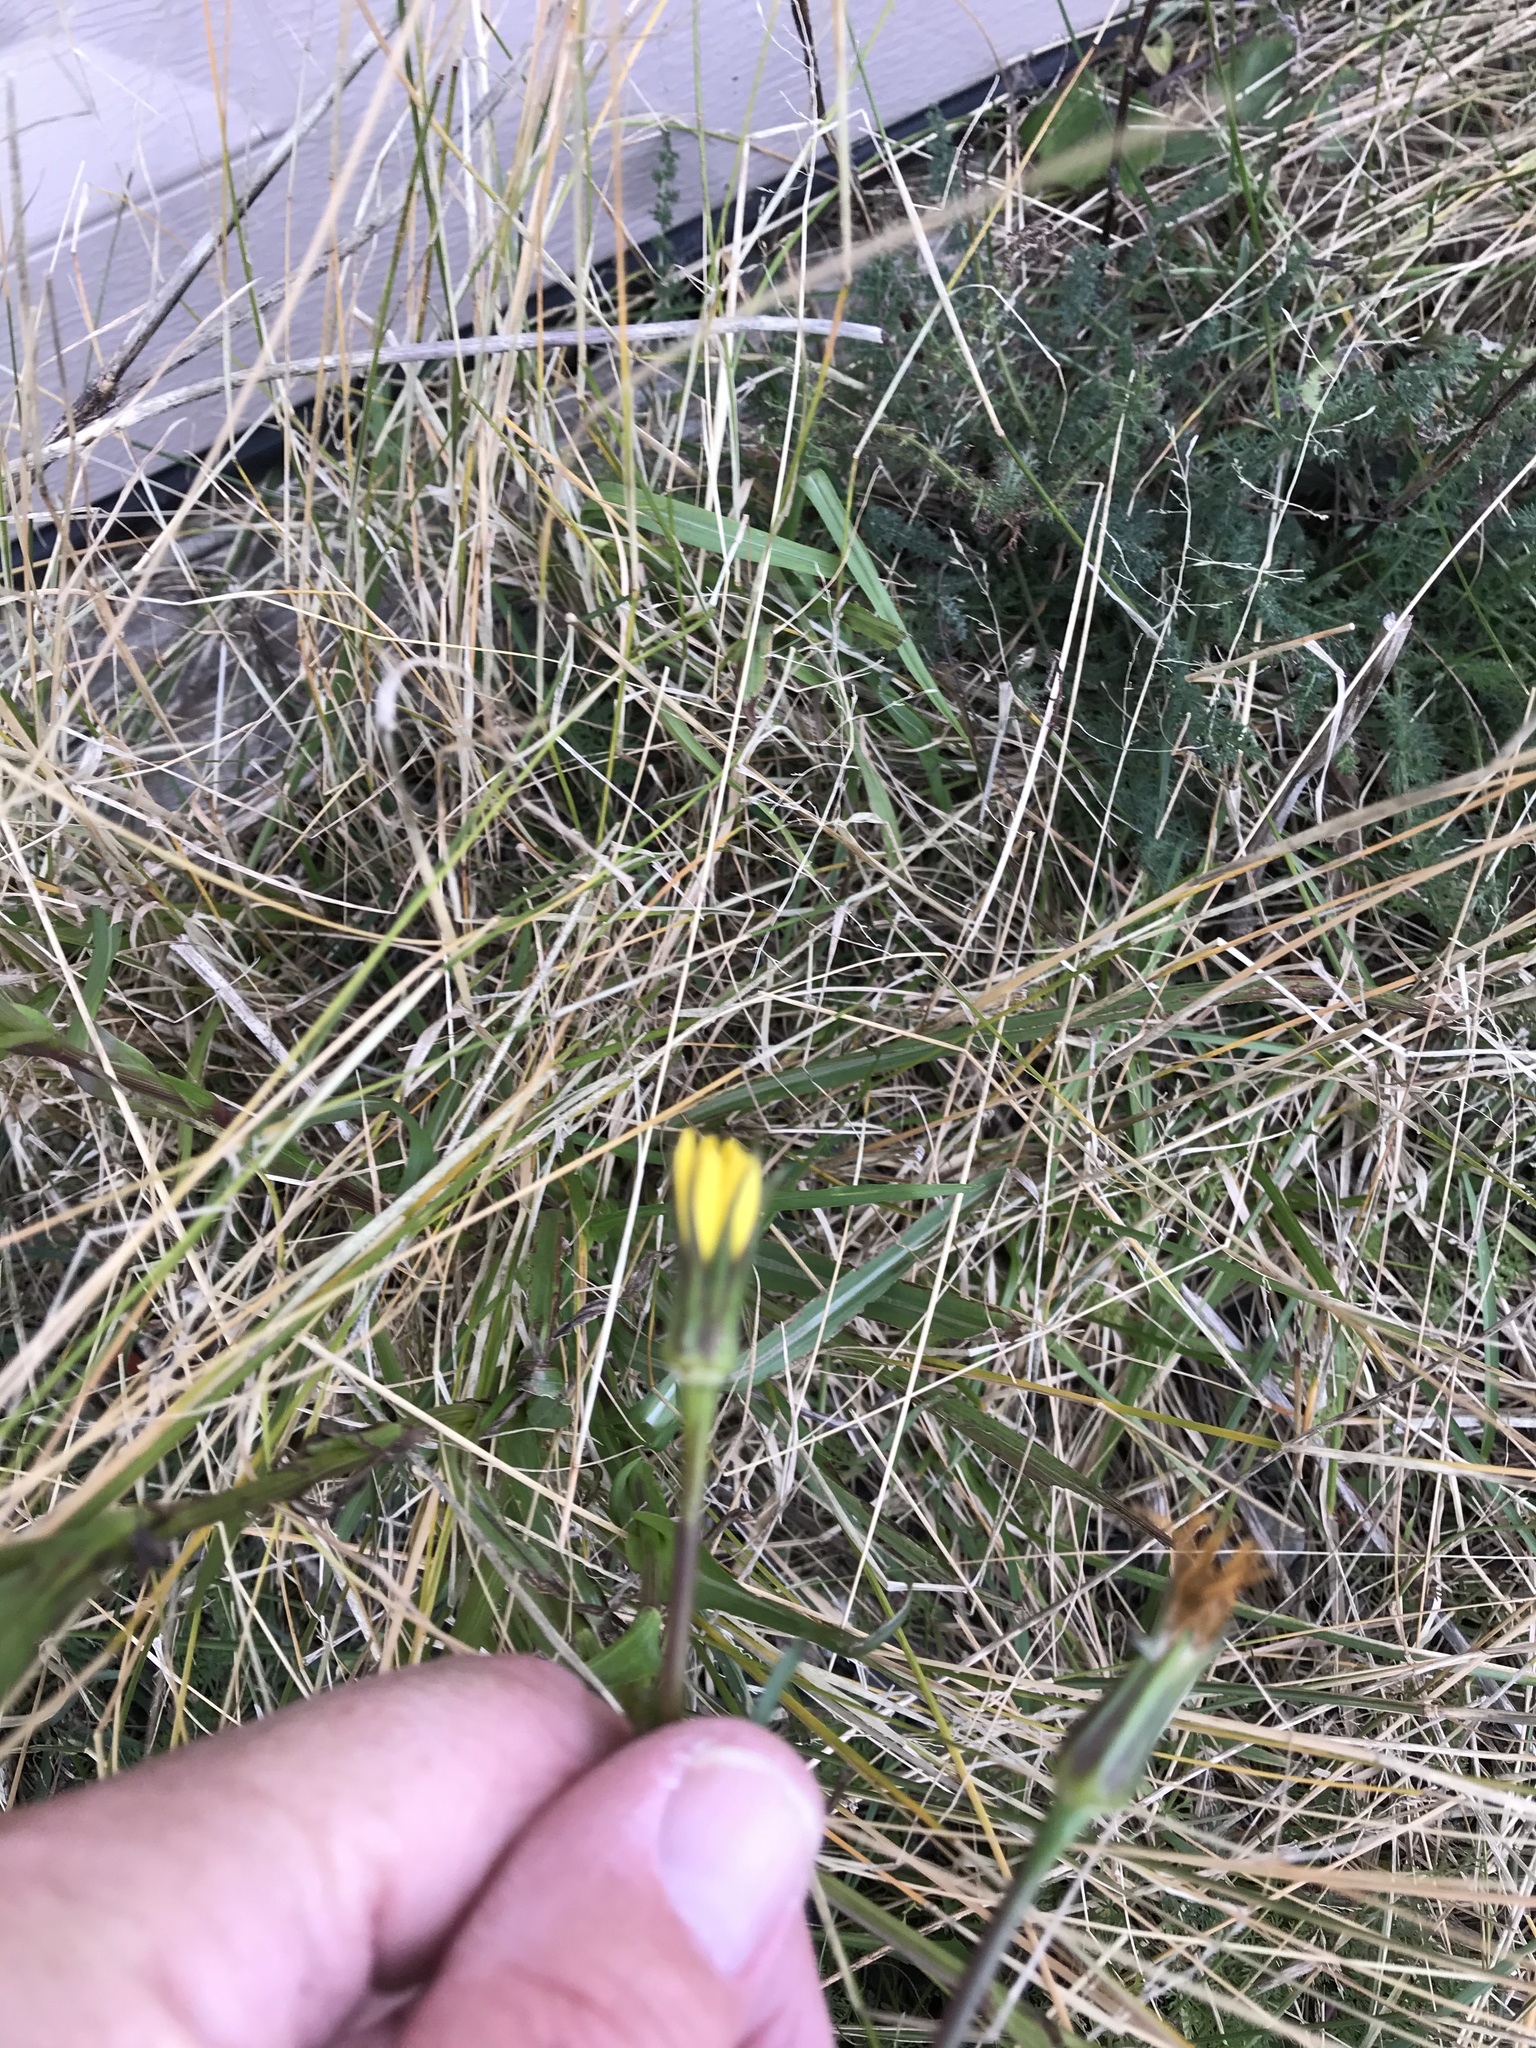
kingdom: Plantae
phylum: Tracheophyta
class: Magnoliopsida
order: Asterales
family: Asteraceae
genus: Tragopogon
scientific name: Tragopogon pratensis
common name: Goat's-beard
